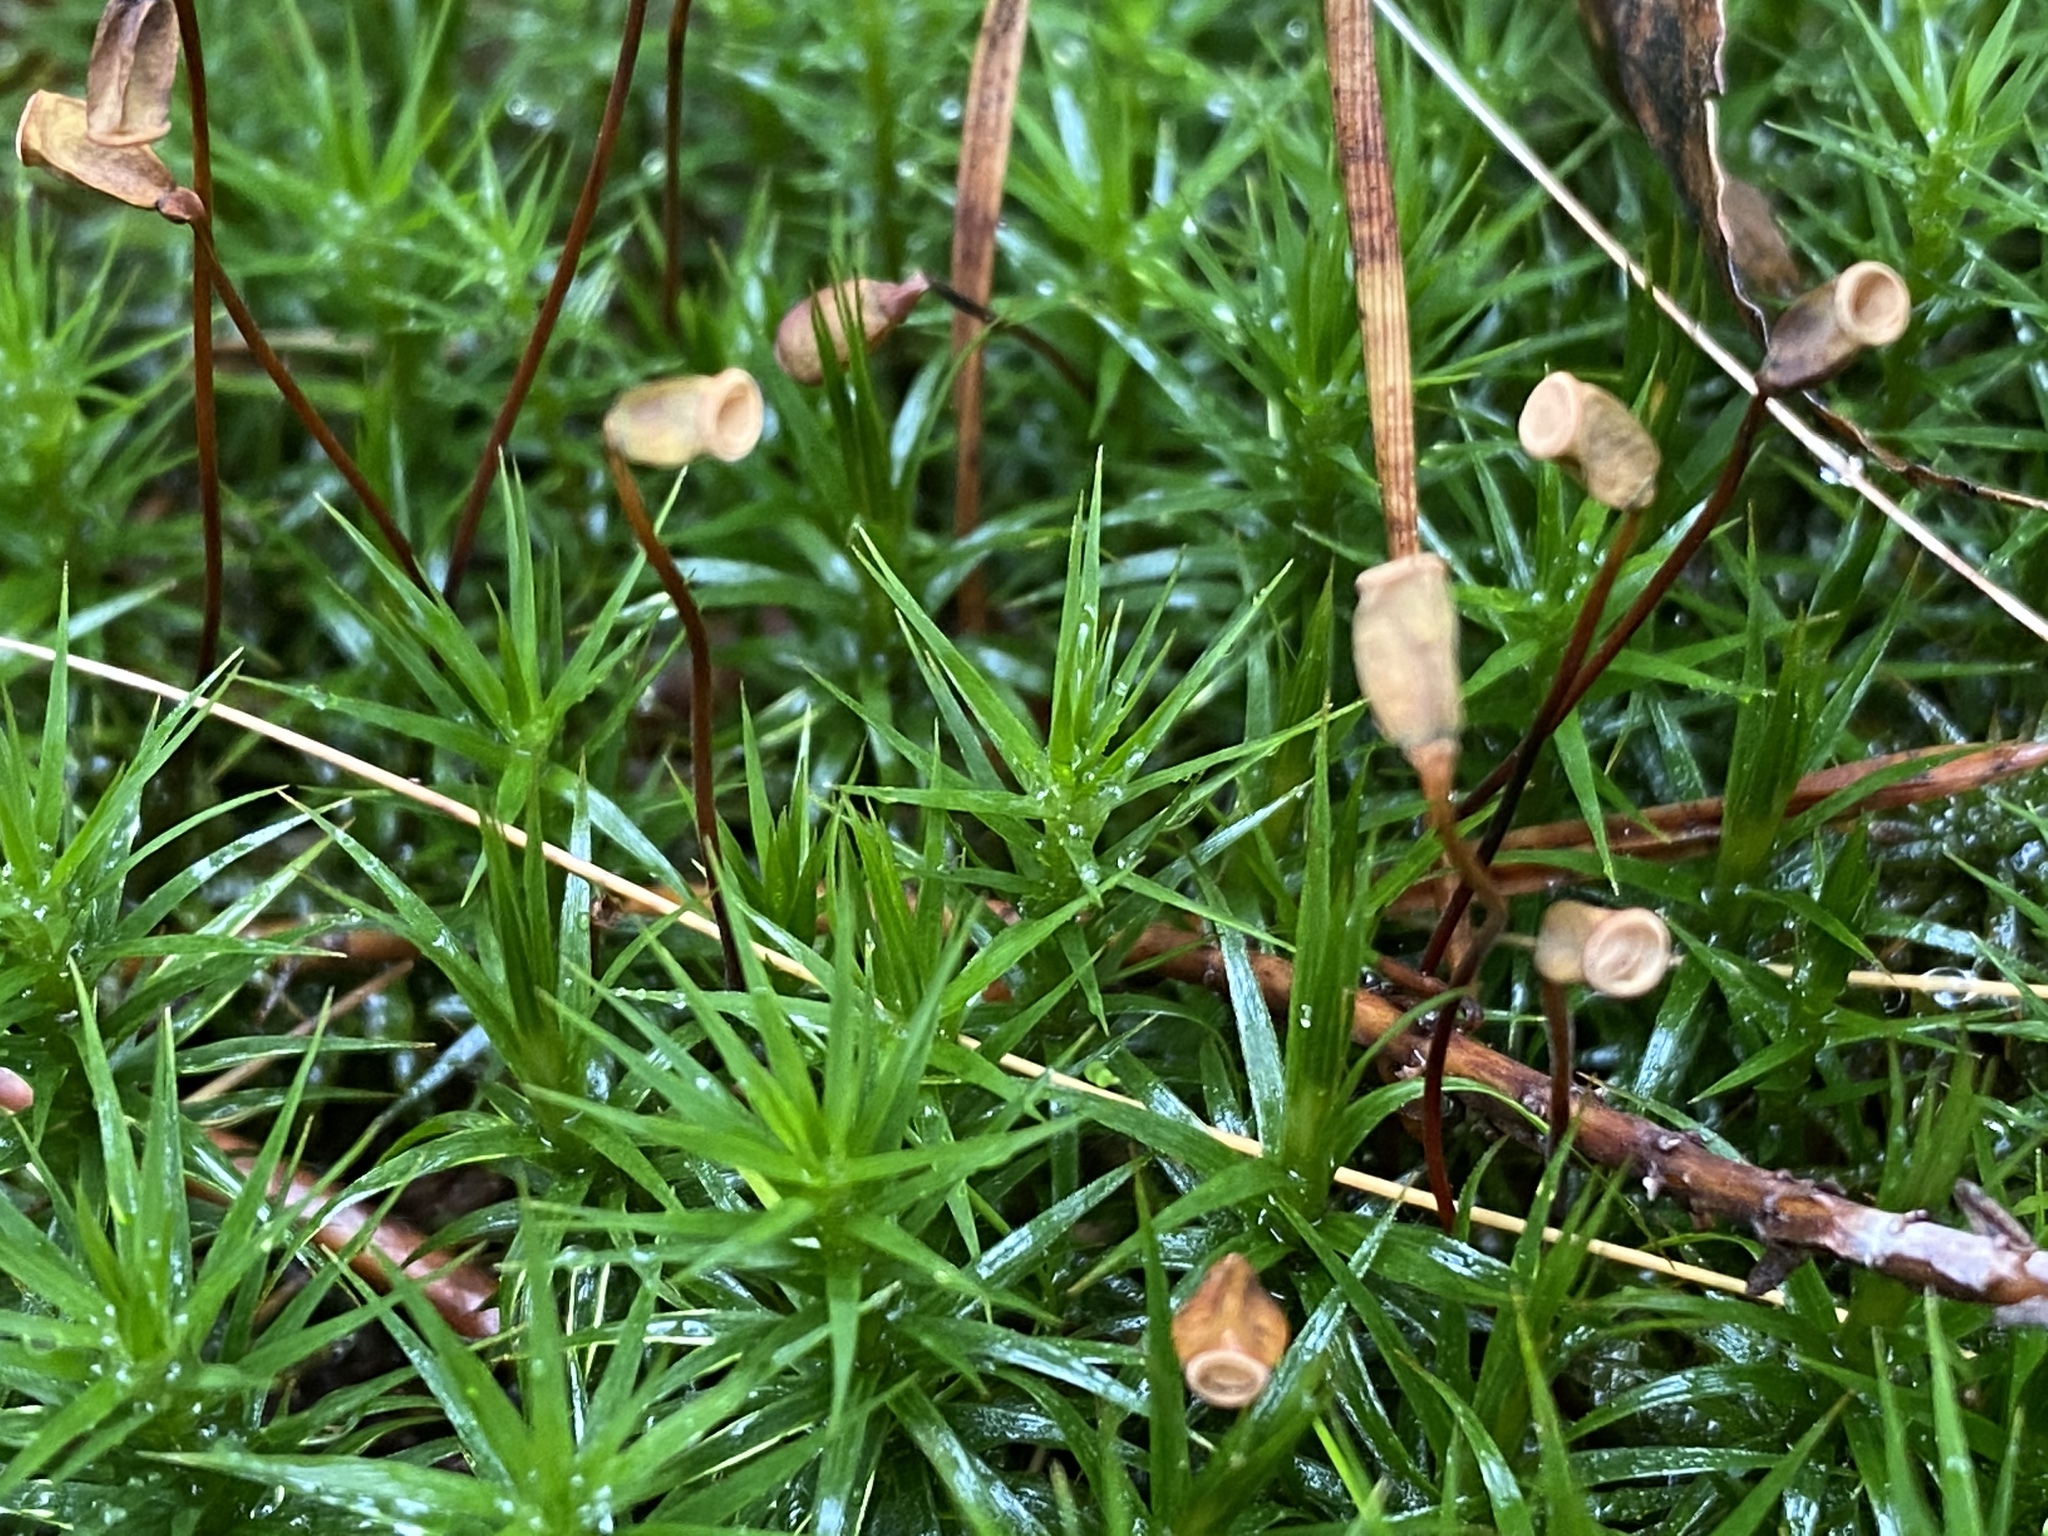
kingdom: Plantae
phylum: Bryophyta
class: Polytrichopsida
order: Polytrichales
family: Polytrichaceae
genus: Polytrichum
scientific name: Polytrichum formosum
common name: Bank haircap moss
